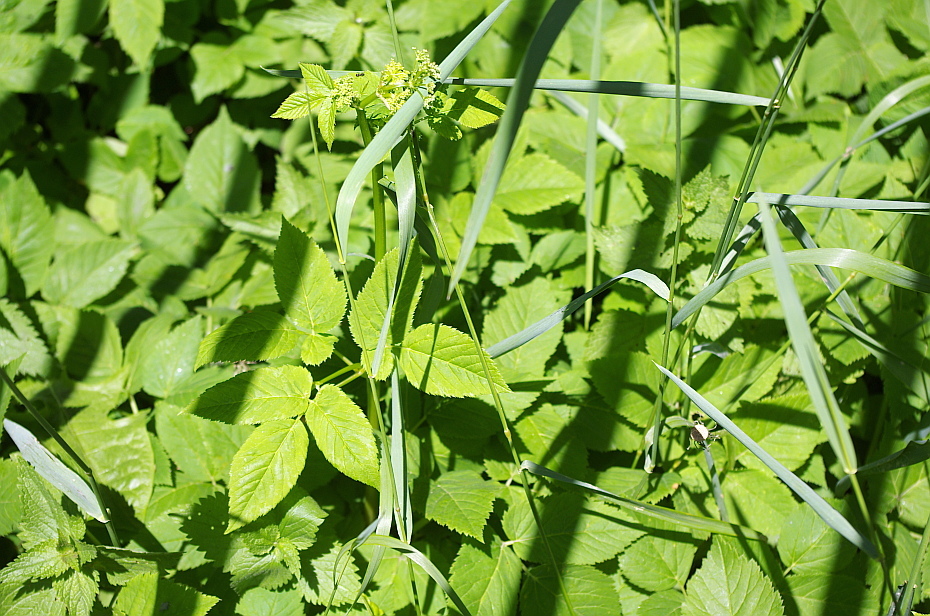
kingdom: Plantae
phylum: Tracheophyta
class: Magnoliopsida
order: Apiales
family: Apiaceae
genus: Aegopodium
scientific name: Aegopodium podagraria
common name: Ground-elder
